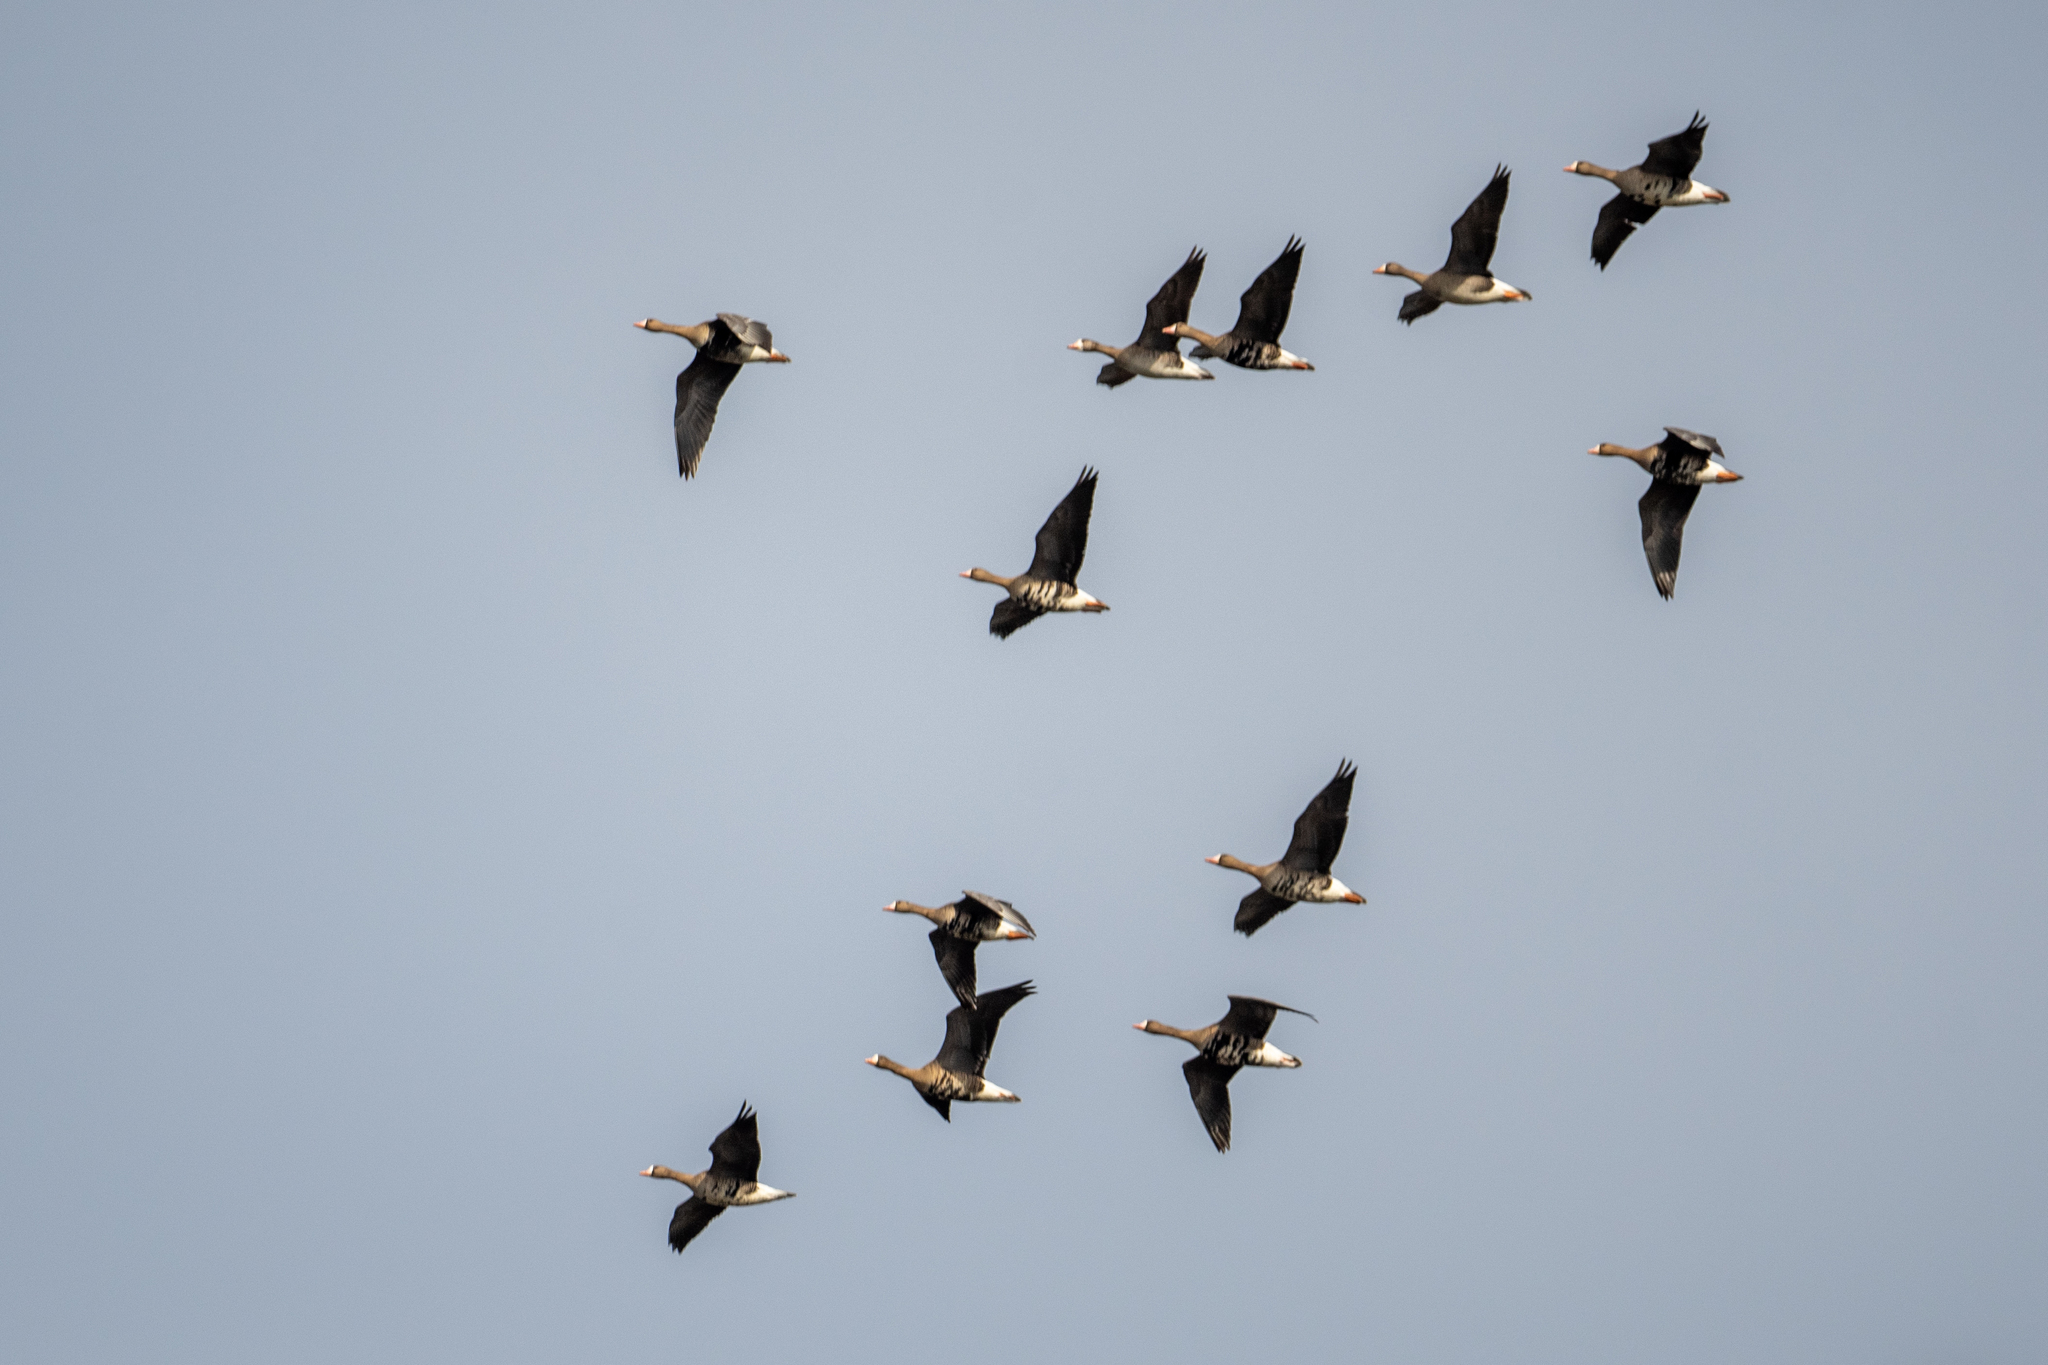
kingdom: Animalia
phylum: Chordata
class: Aves
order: Anseriformes
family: Anatidae
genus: Anser
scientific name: Anser albifrons
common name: Greater white-fronted goose
